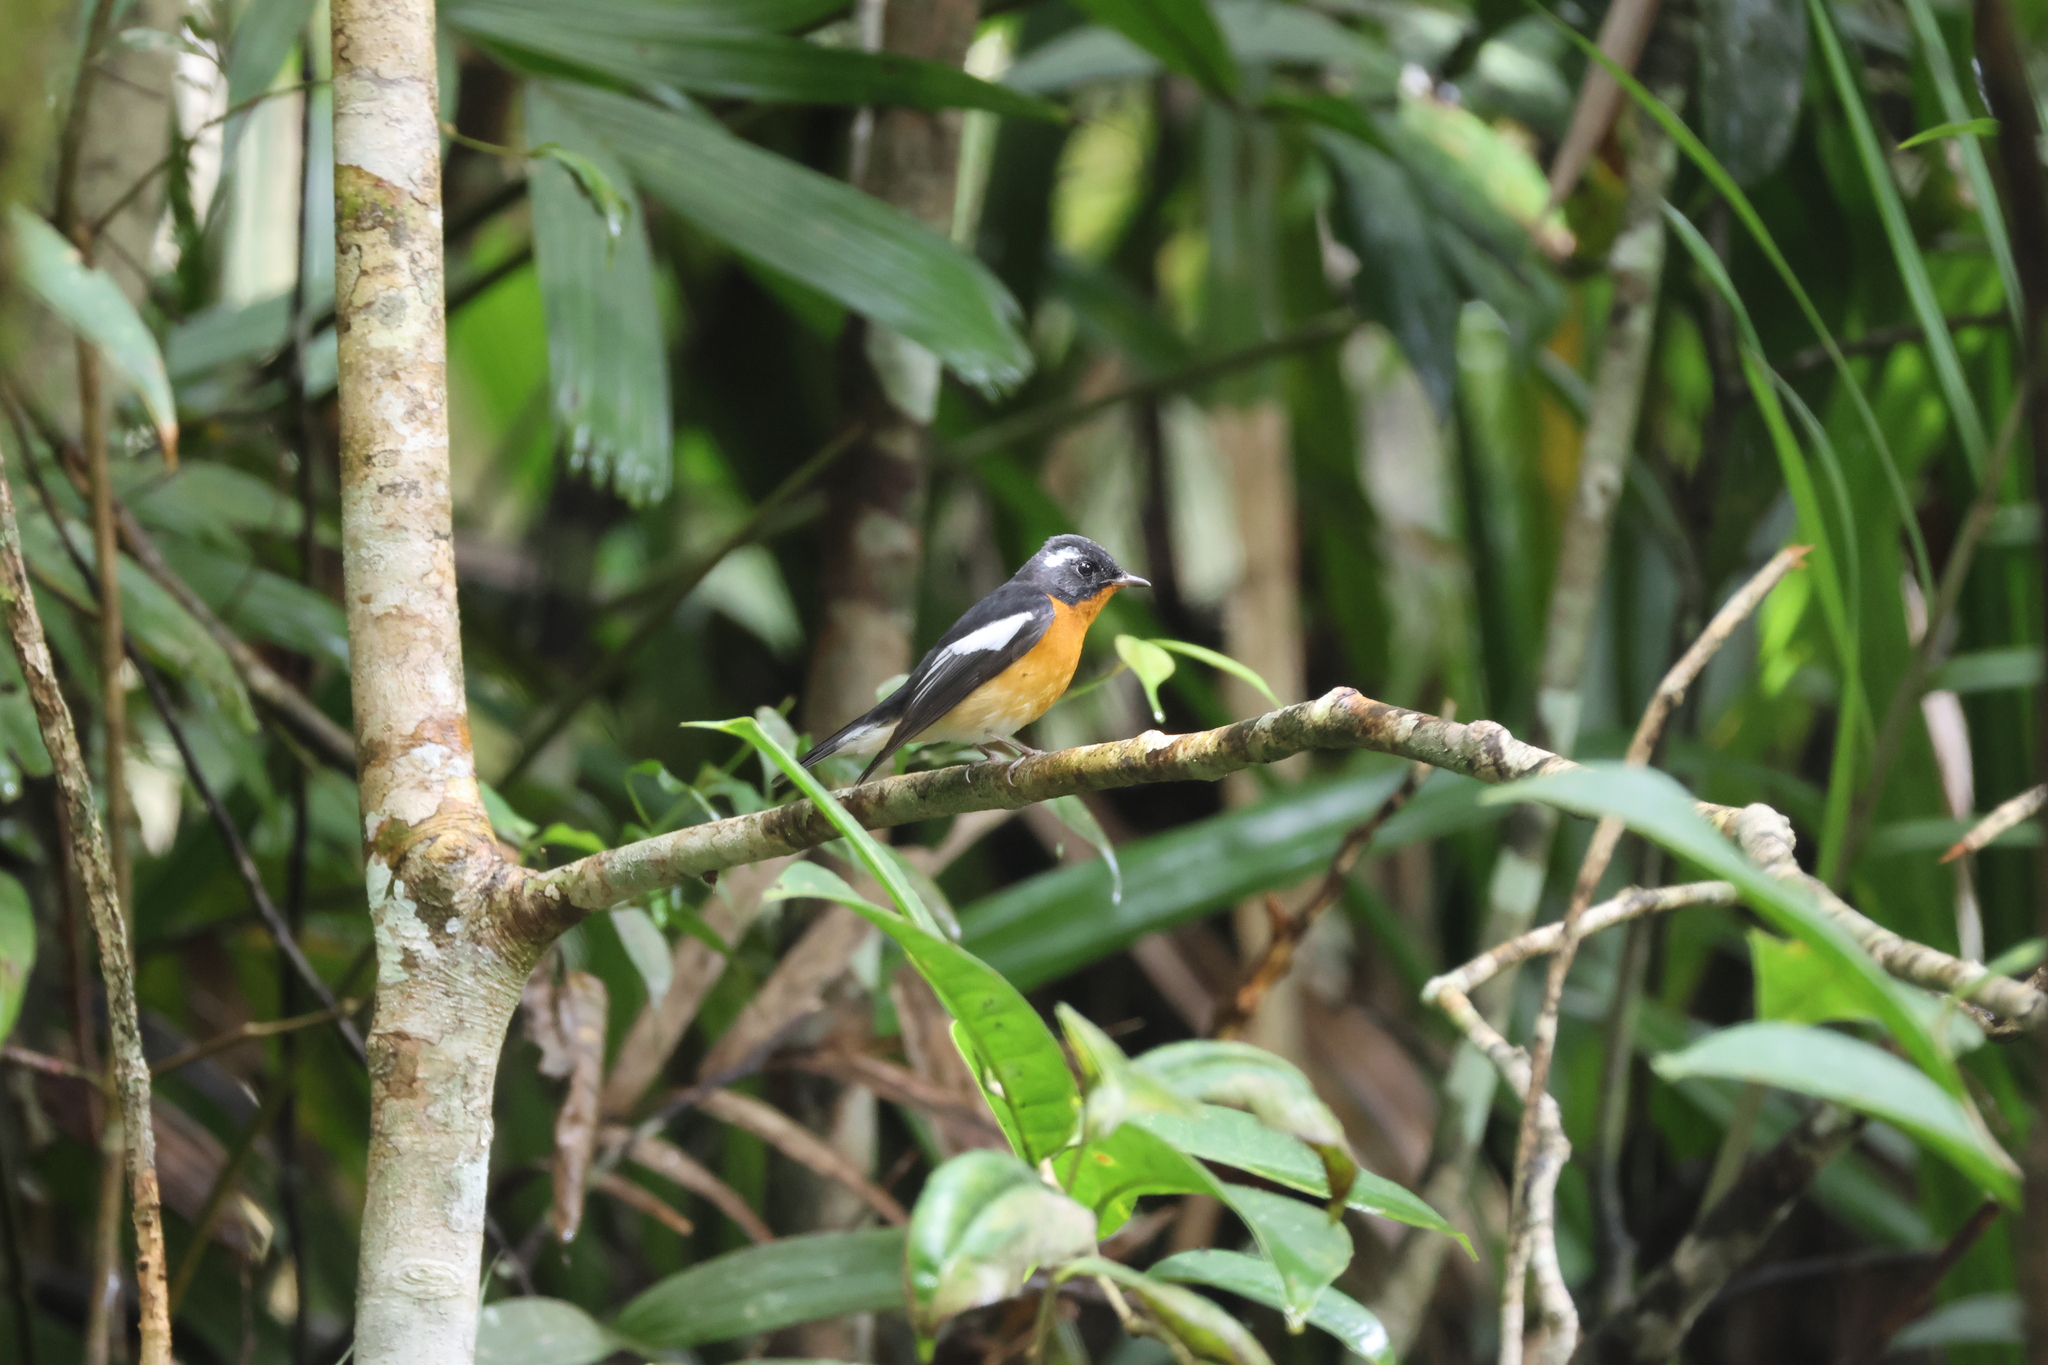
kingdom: Animalia
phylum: Chordata
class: Aves
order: Passeriformes
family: Muscicapidae
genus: Ficedula
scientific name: Ficedula mugimaki
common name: Mugimaki flycatcher
